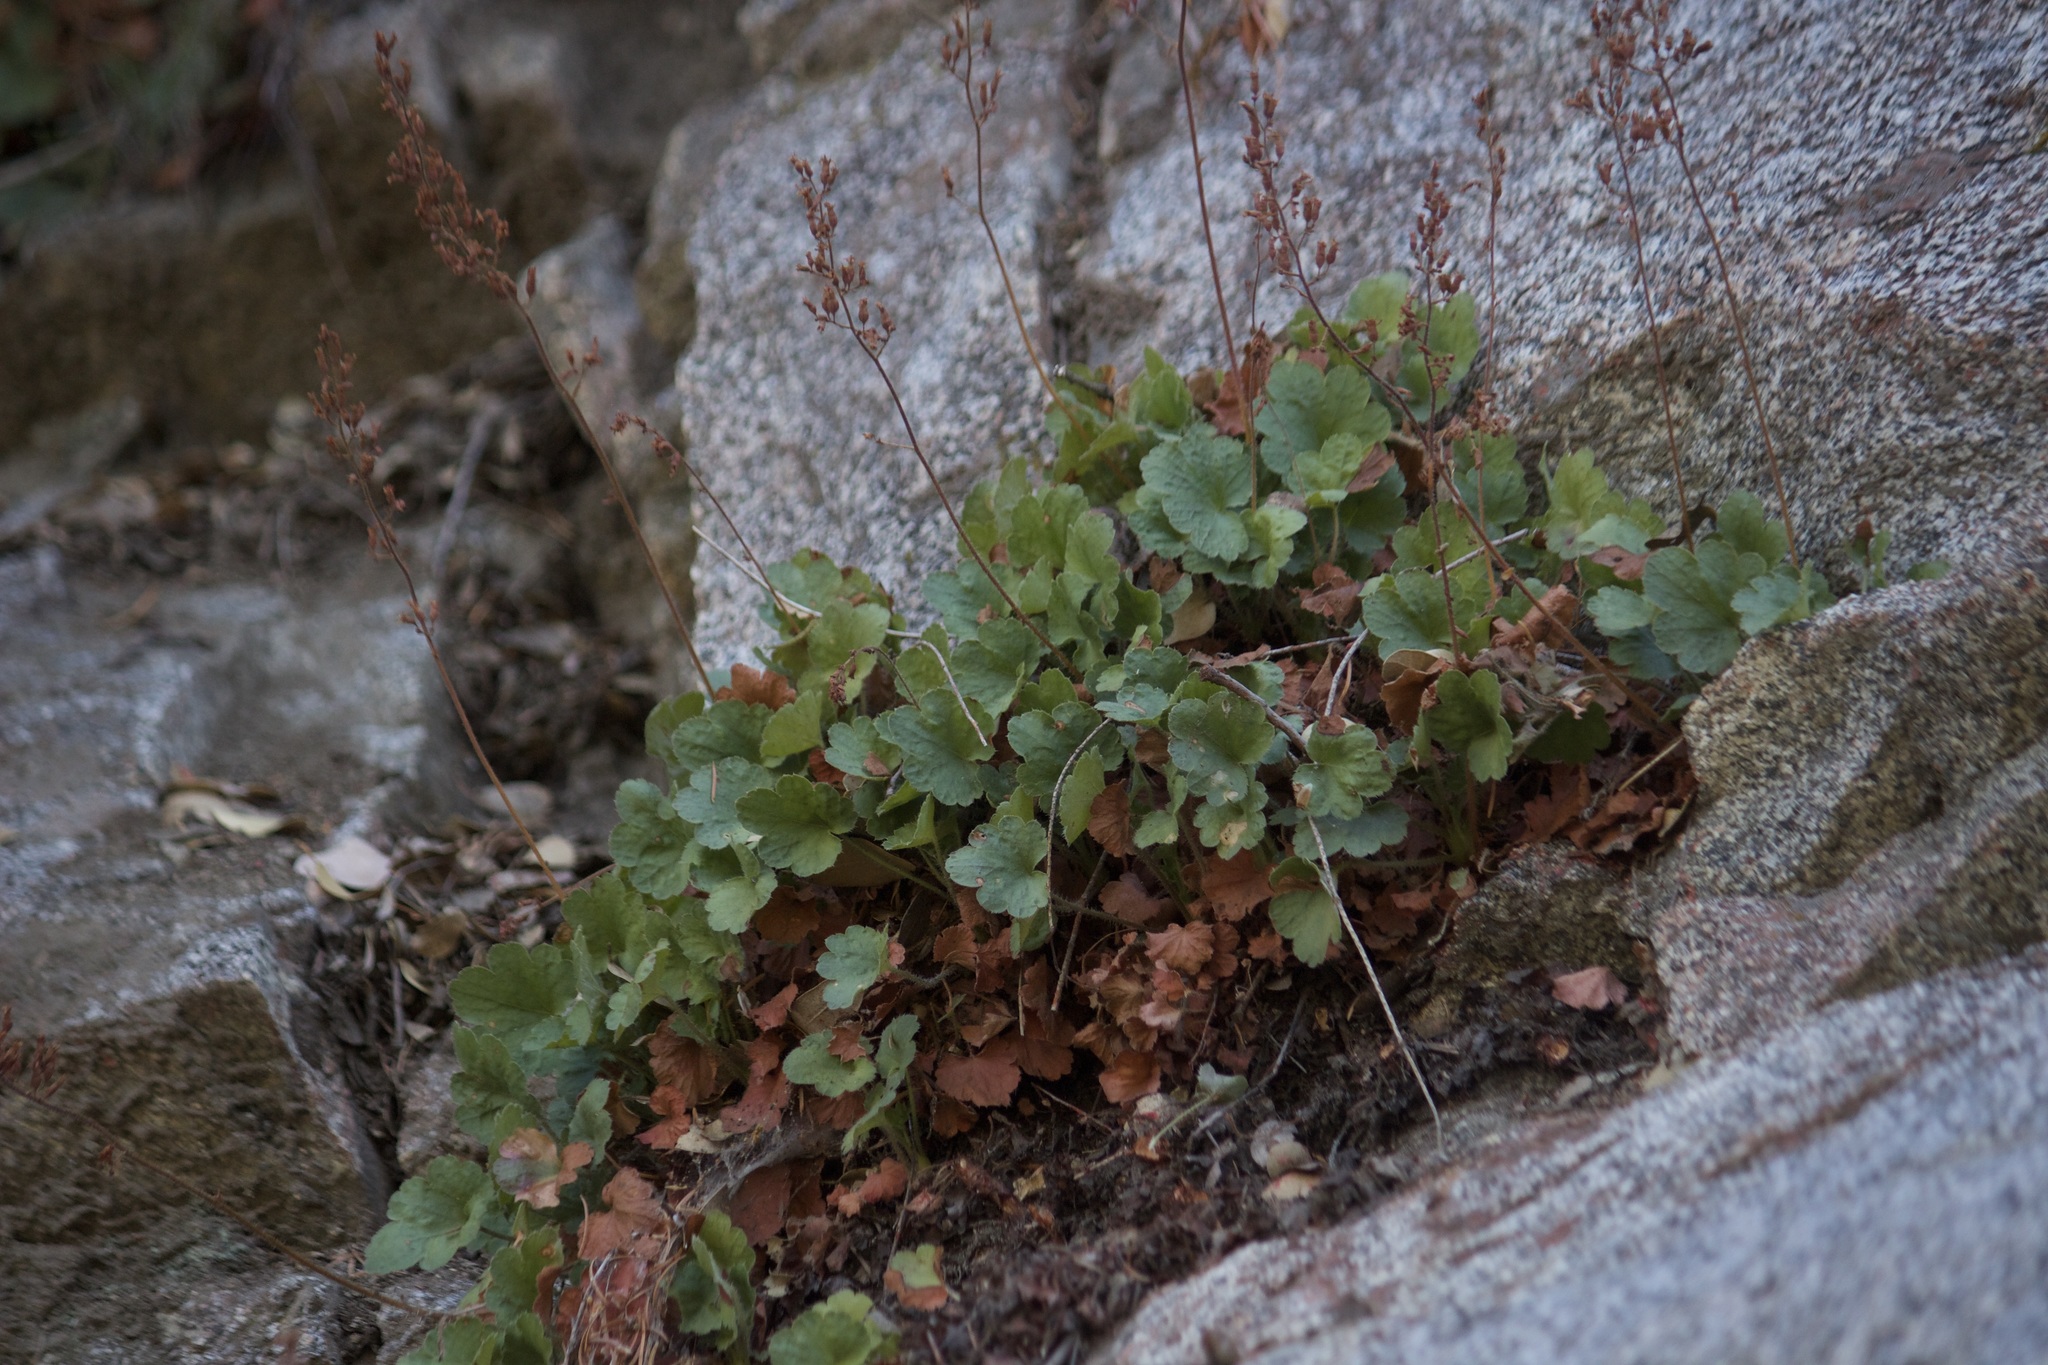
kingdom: Plantae
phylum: Tracheophyta
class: Magnoliopsida
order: Saxifragales
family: Saxifragaceae
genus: Heuchera
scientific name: Heuchera rubescens
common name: Jack-o'the-rocks
